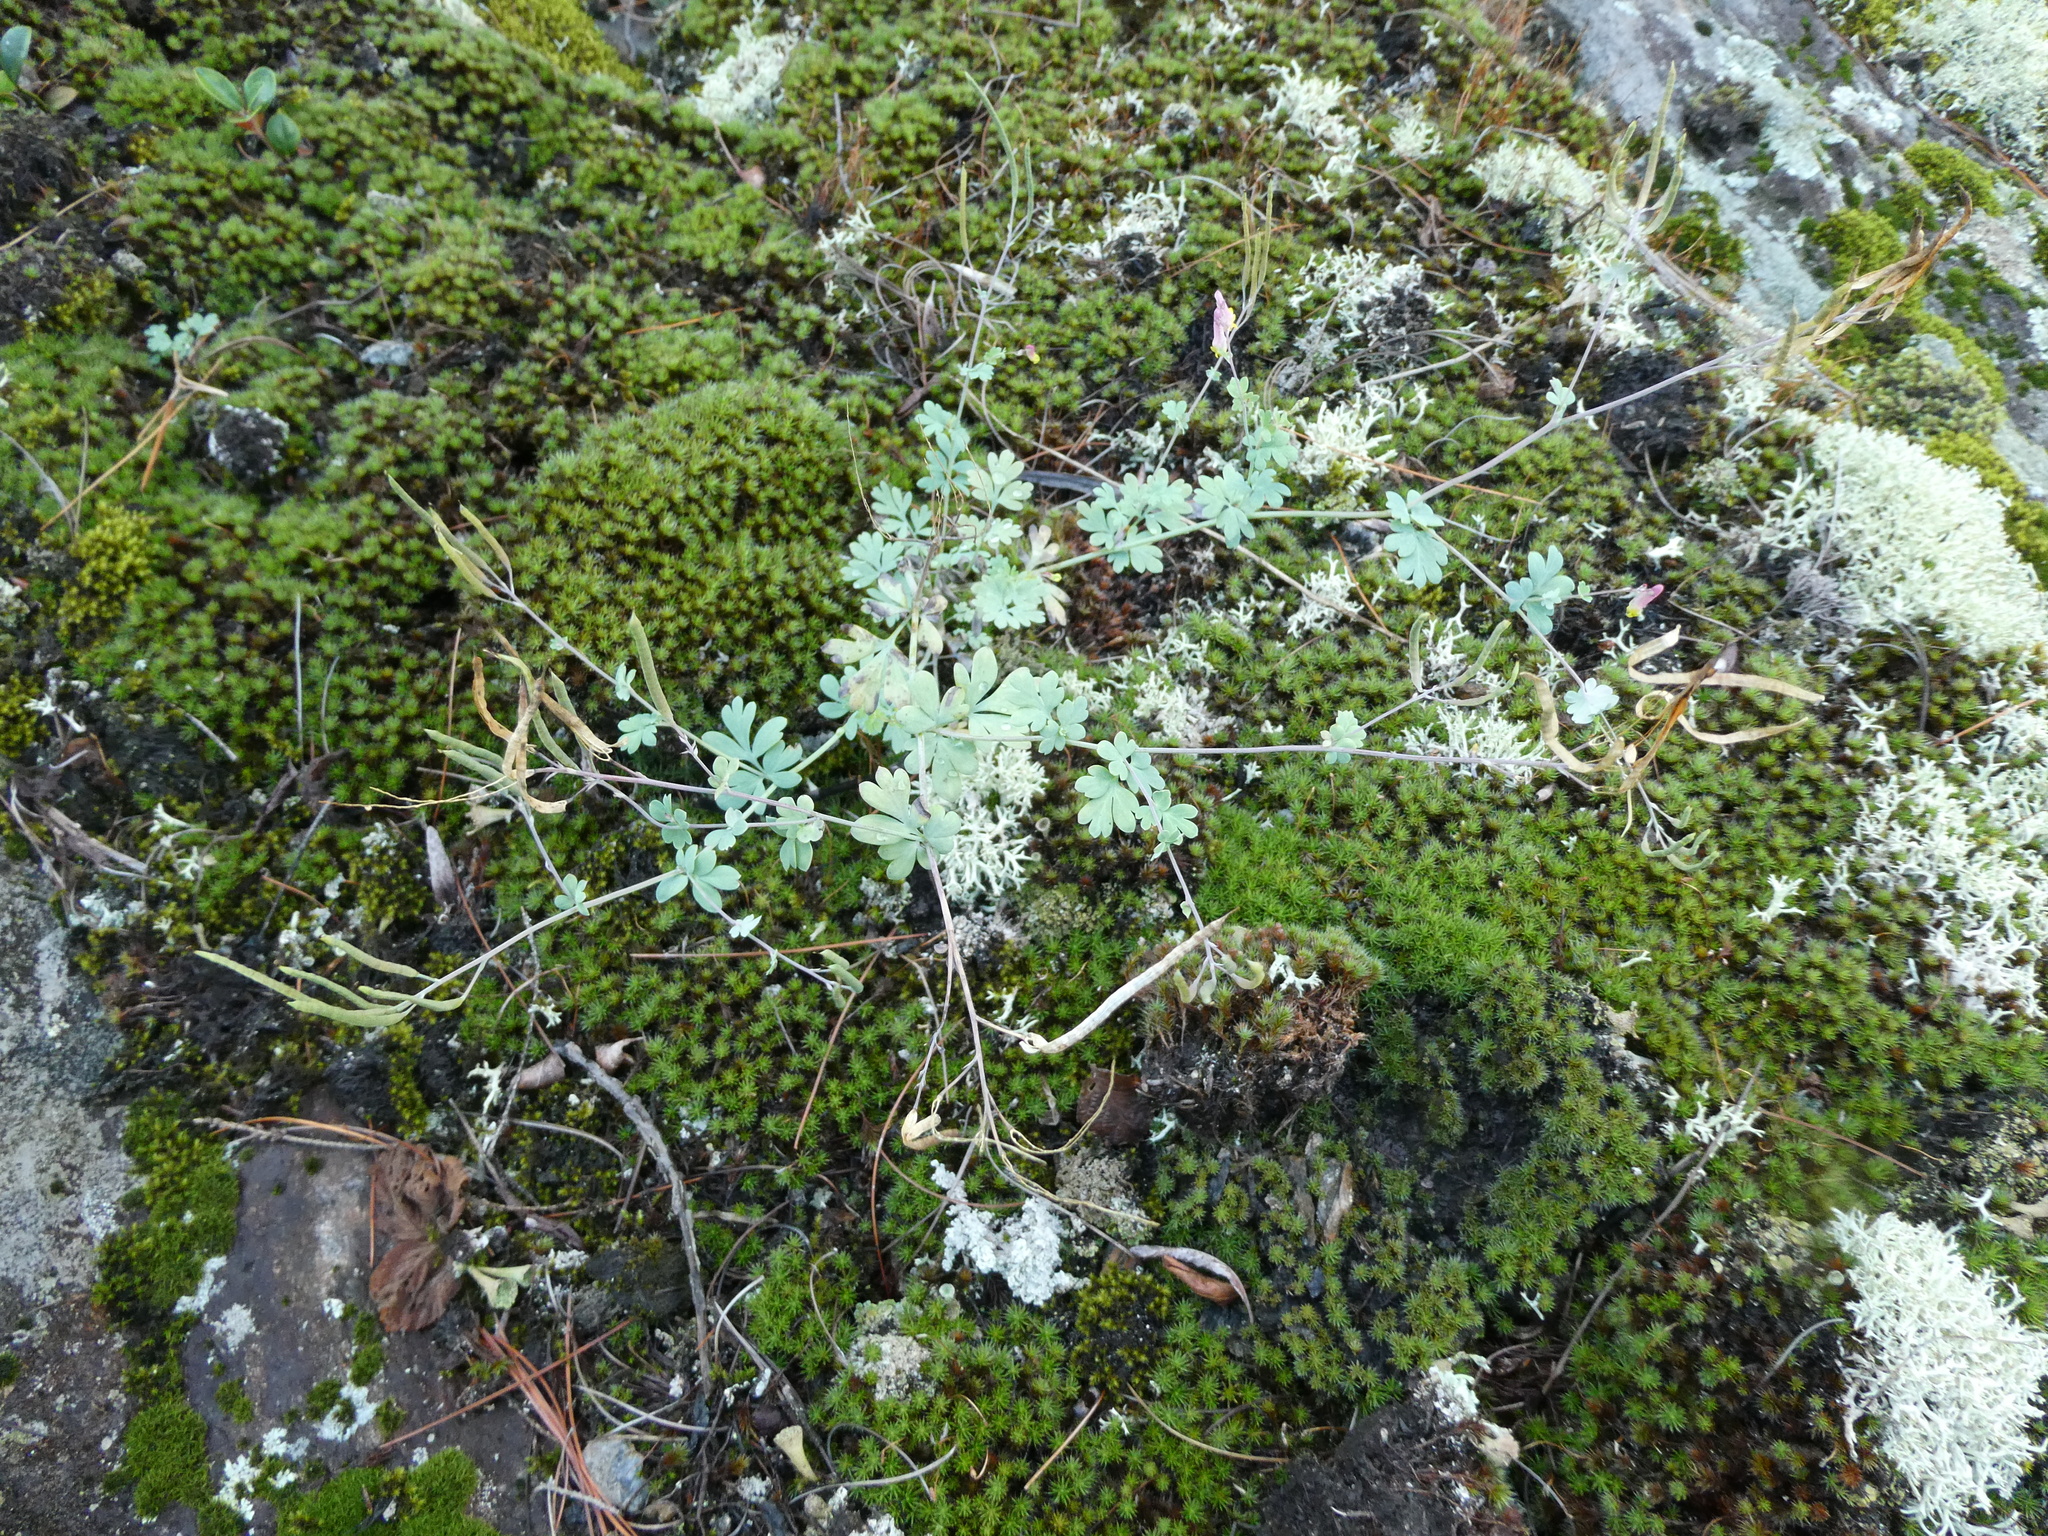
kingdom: Plantae
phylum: Tracheophyta
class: Magnoliopsida
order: Ranunculales
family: Papaveraceae
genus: Capnoides
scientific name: Capnoides sempervirens
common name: Rock harlequin
